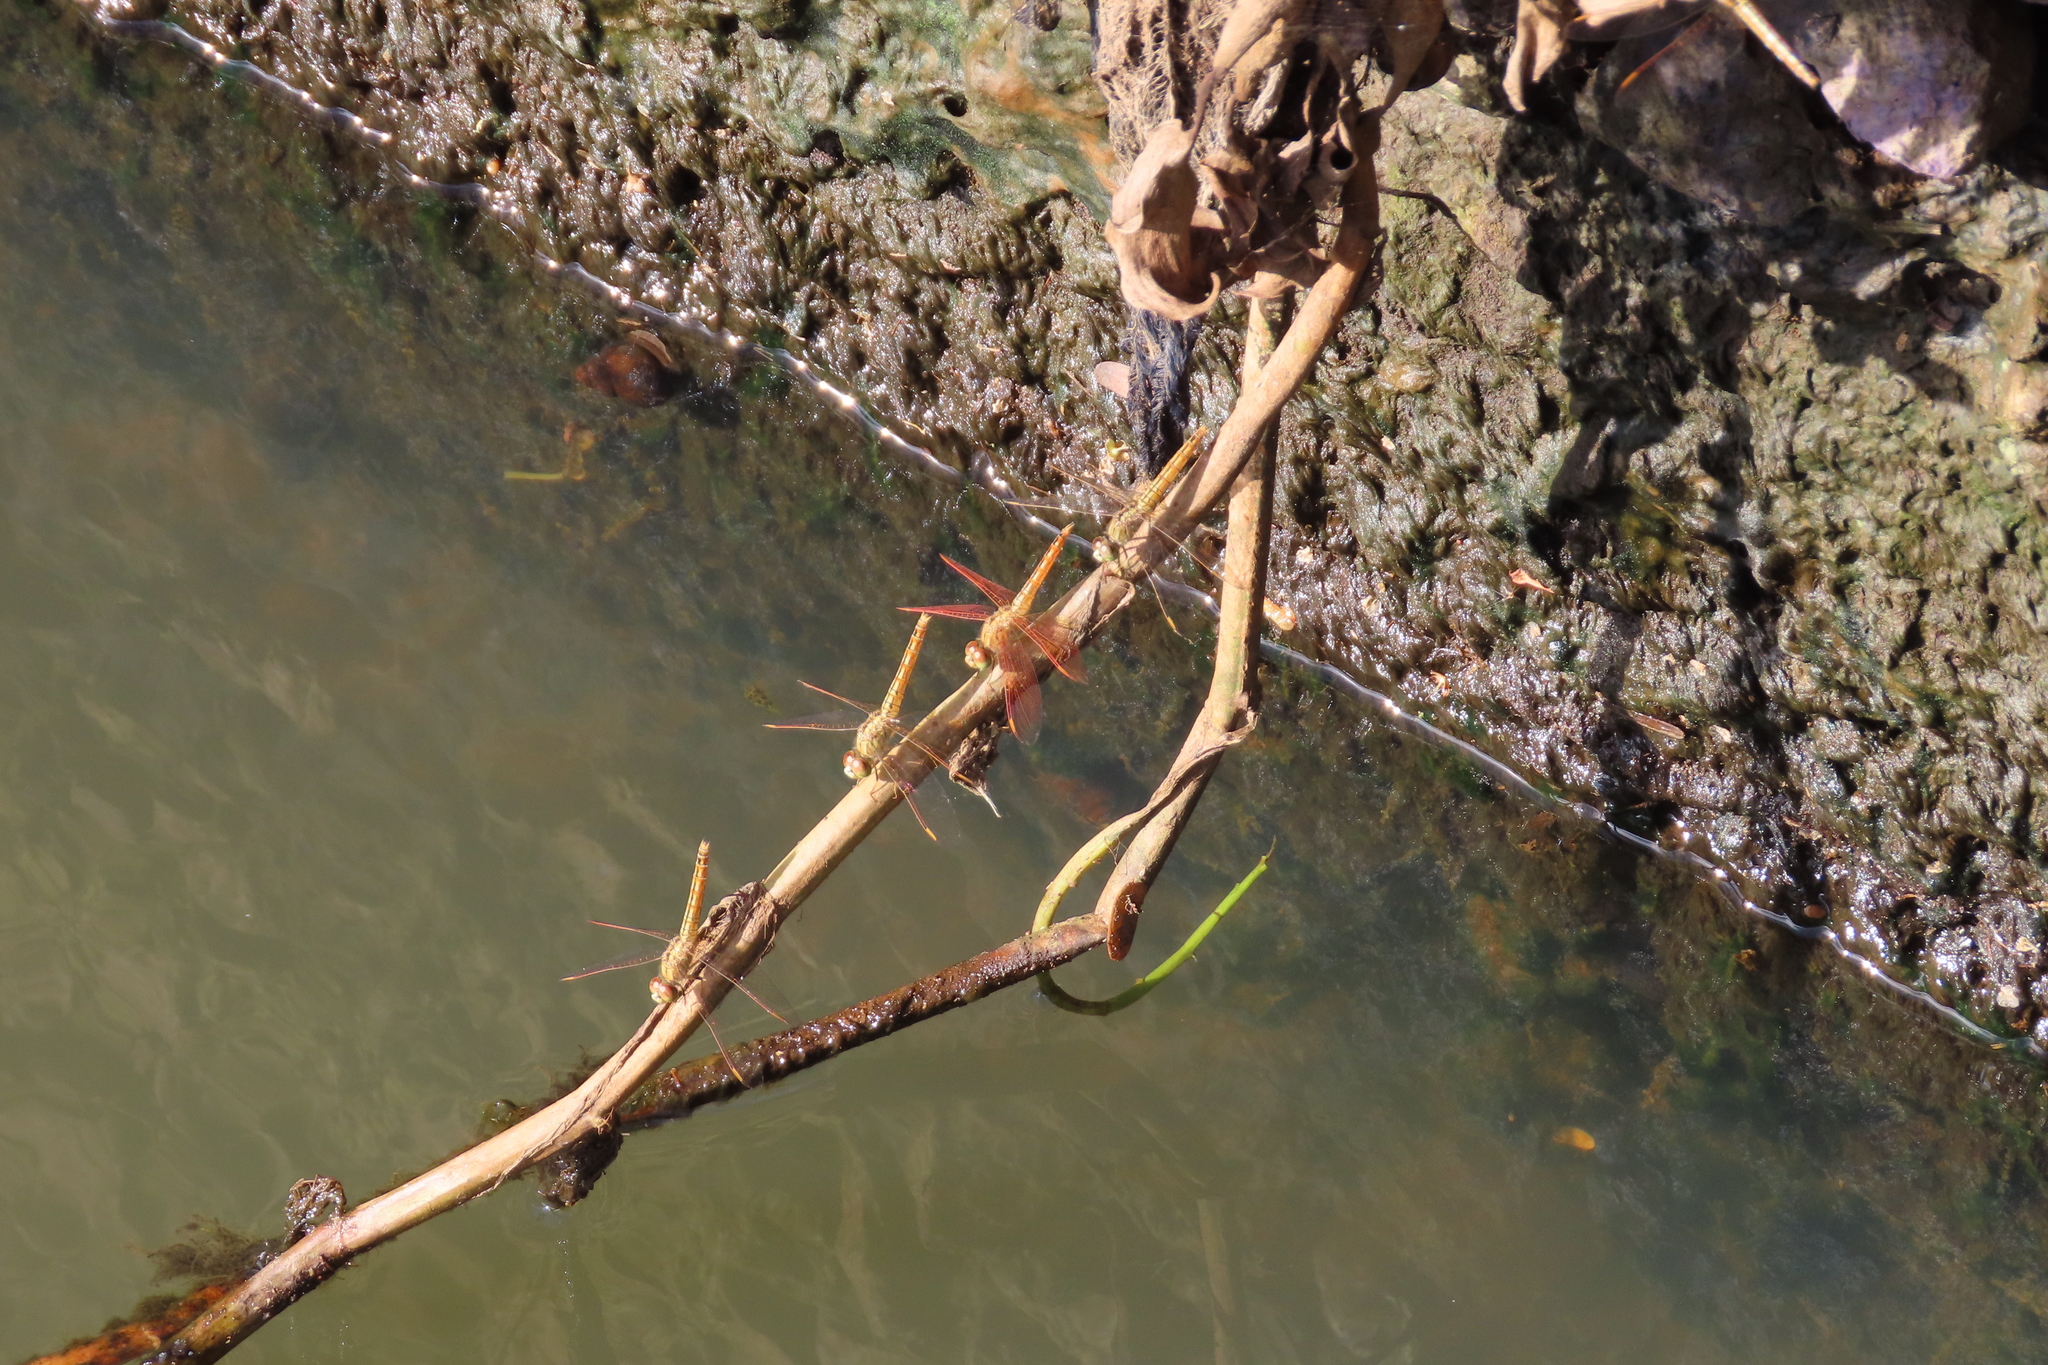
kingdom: Animalia
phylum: Arthropoda
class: Insecta
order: Odonata
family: Libellulidae
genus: Brachythemis
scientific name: Brachythemis contaminata
